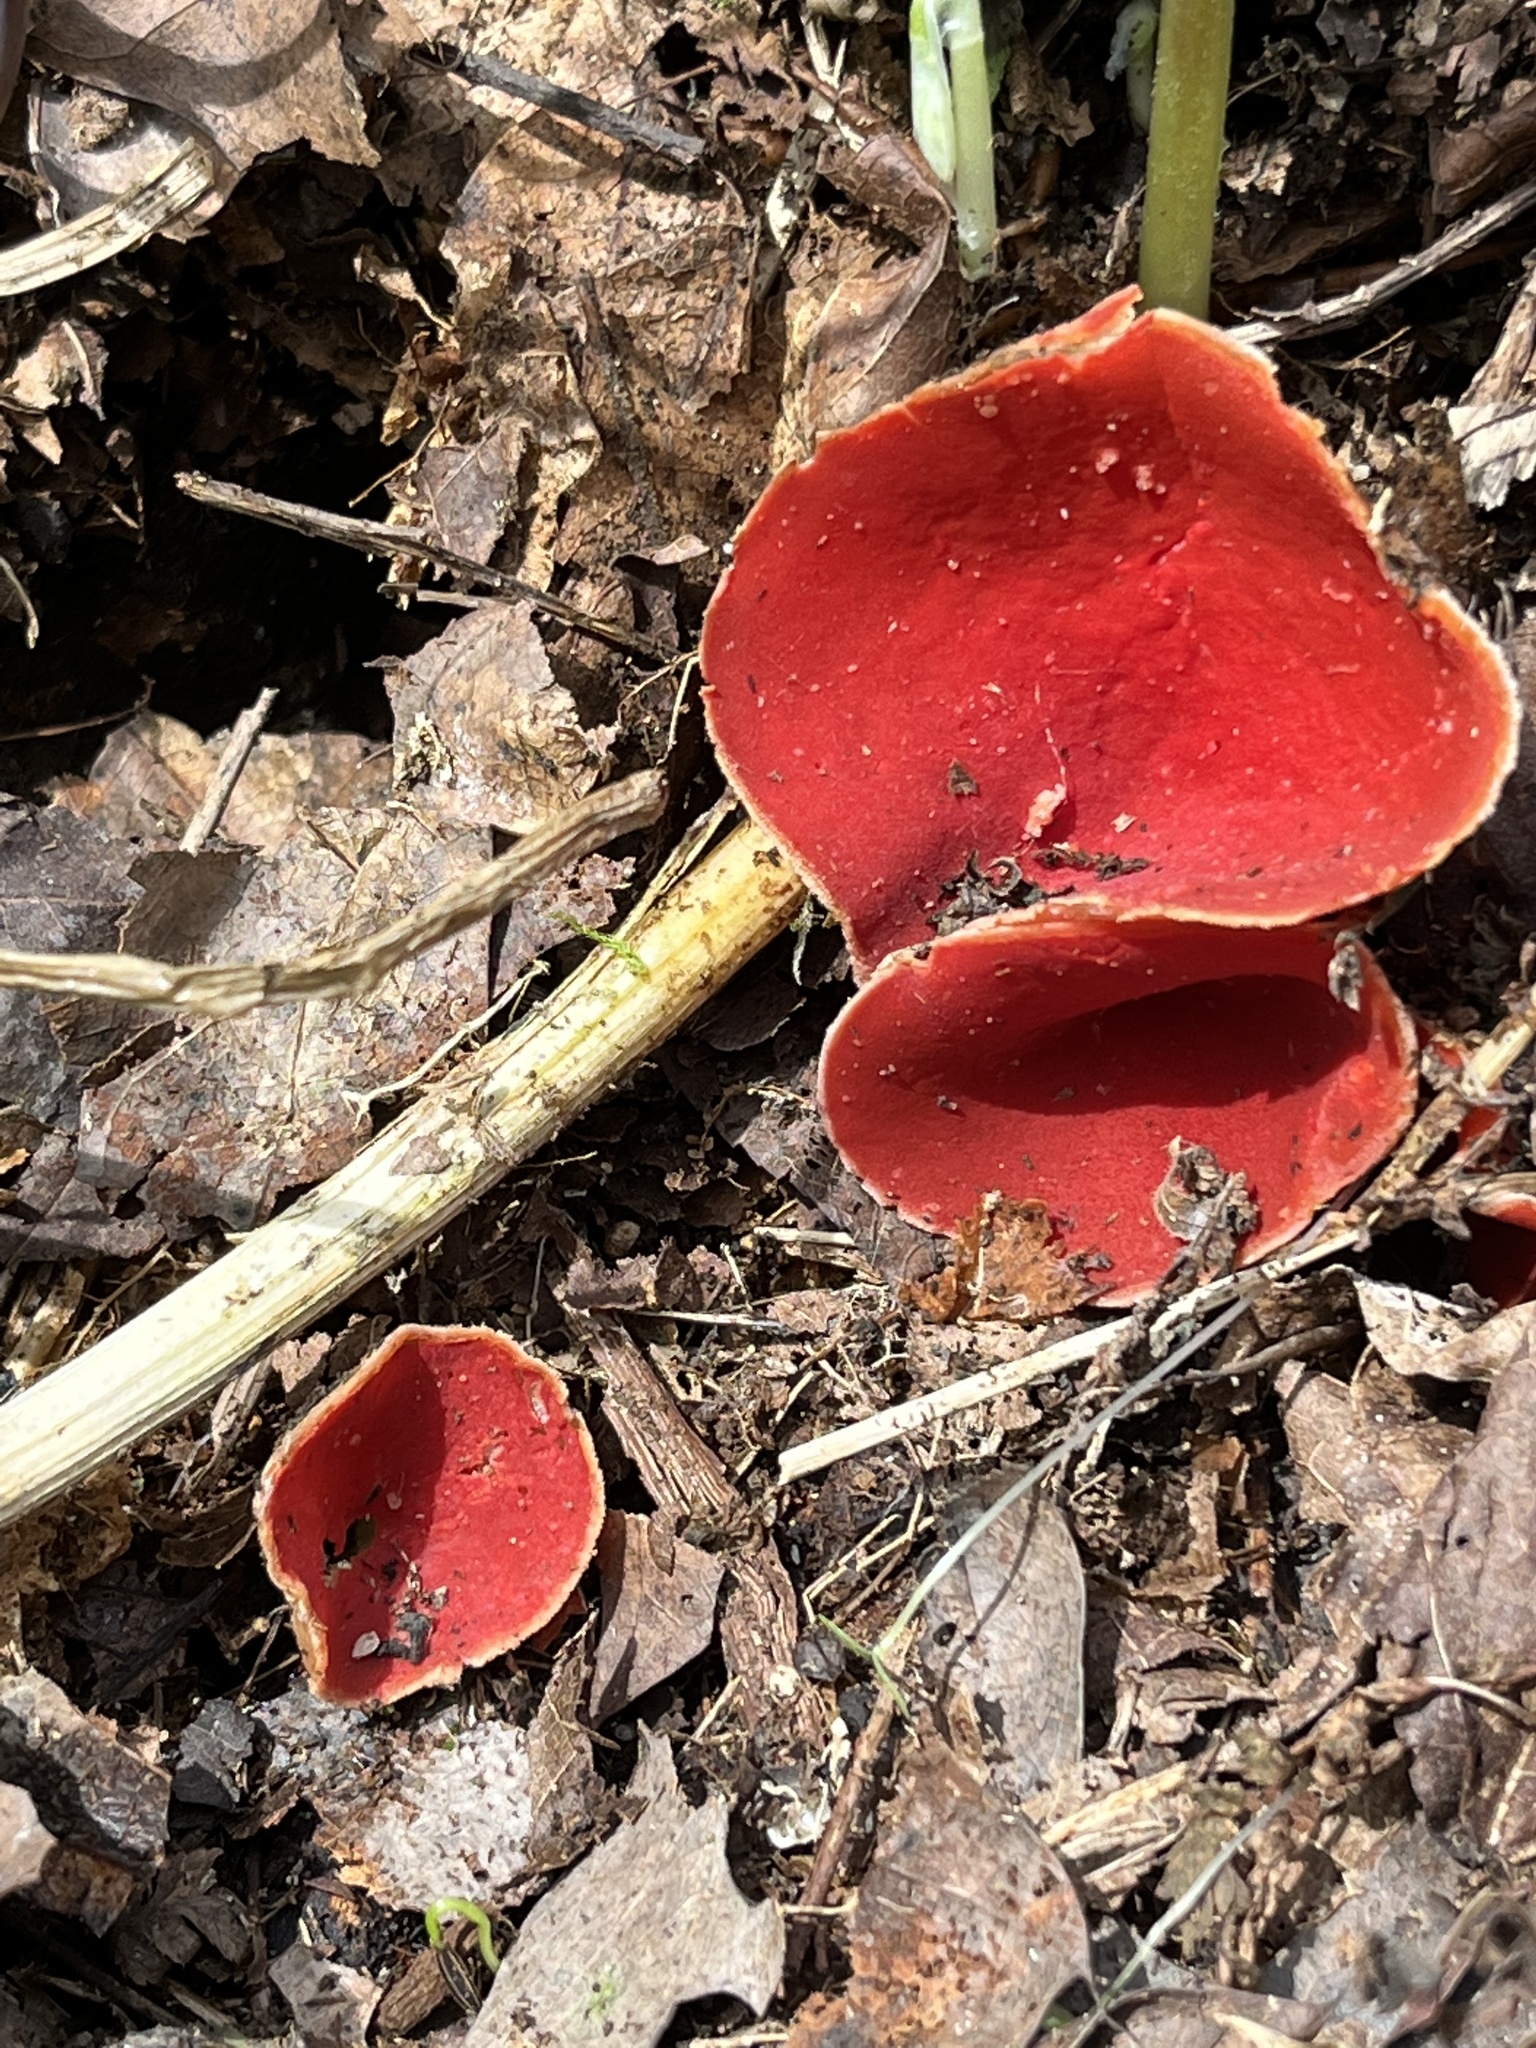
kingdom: Fungi
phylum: Ascomycota
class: Pezizomycetes
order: Pezizales
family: Sarcoscyphaceae
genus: Sarcoscypha
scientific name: Sarcoscypha dudleyi
